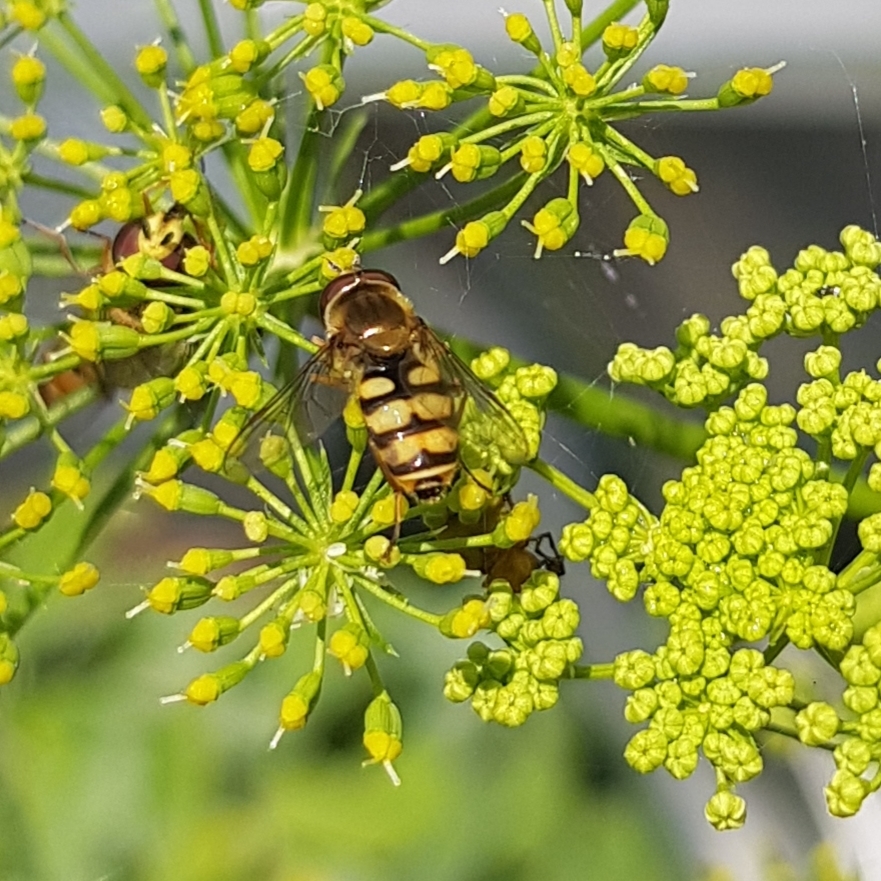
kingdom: Animalia
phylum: Arthropoda
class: Insecta
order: Diptera
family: Syrphidae
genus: Eupeodes
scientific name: Eupeodes corollae
